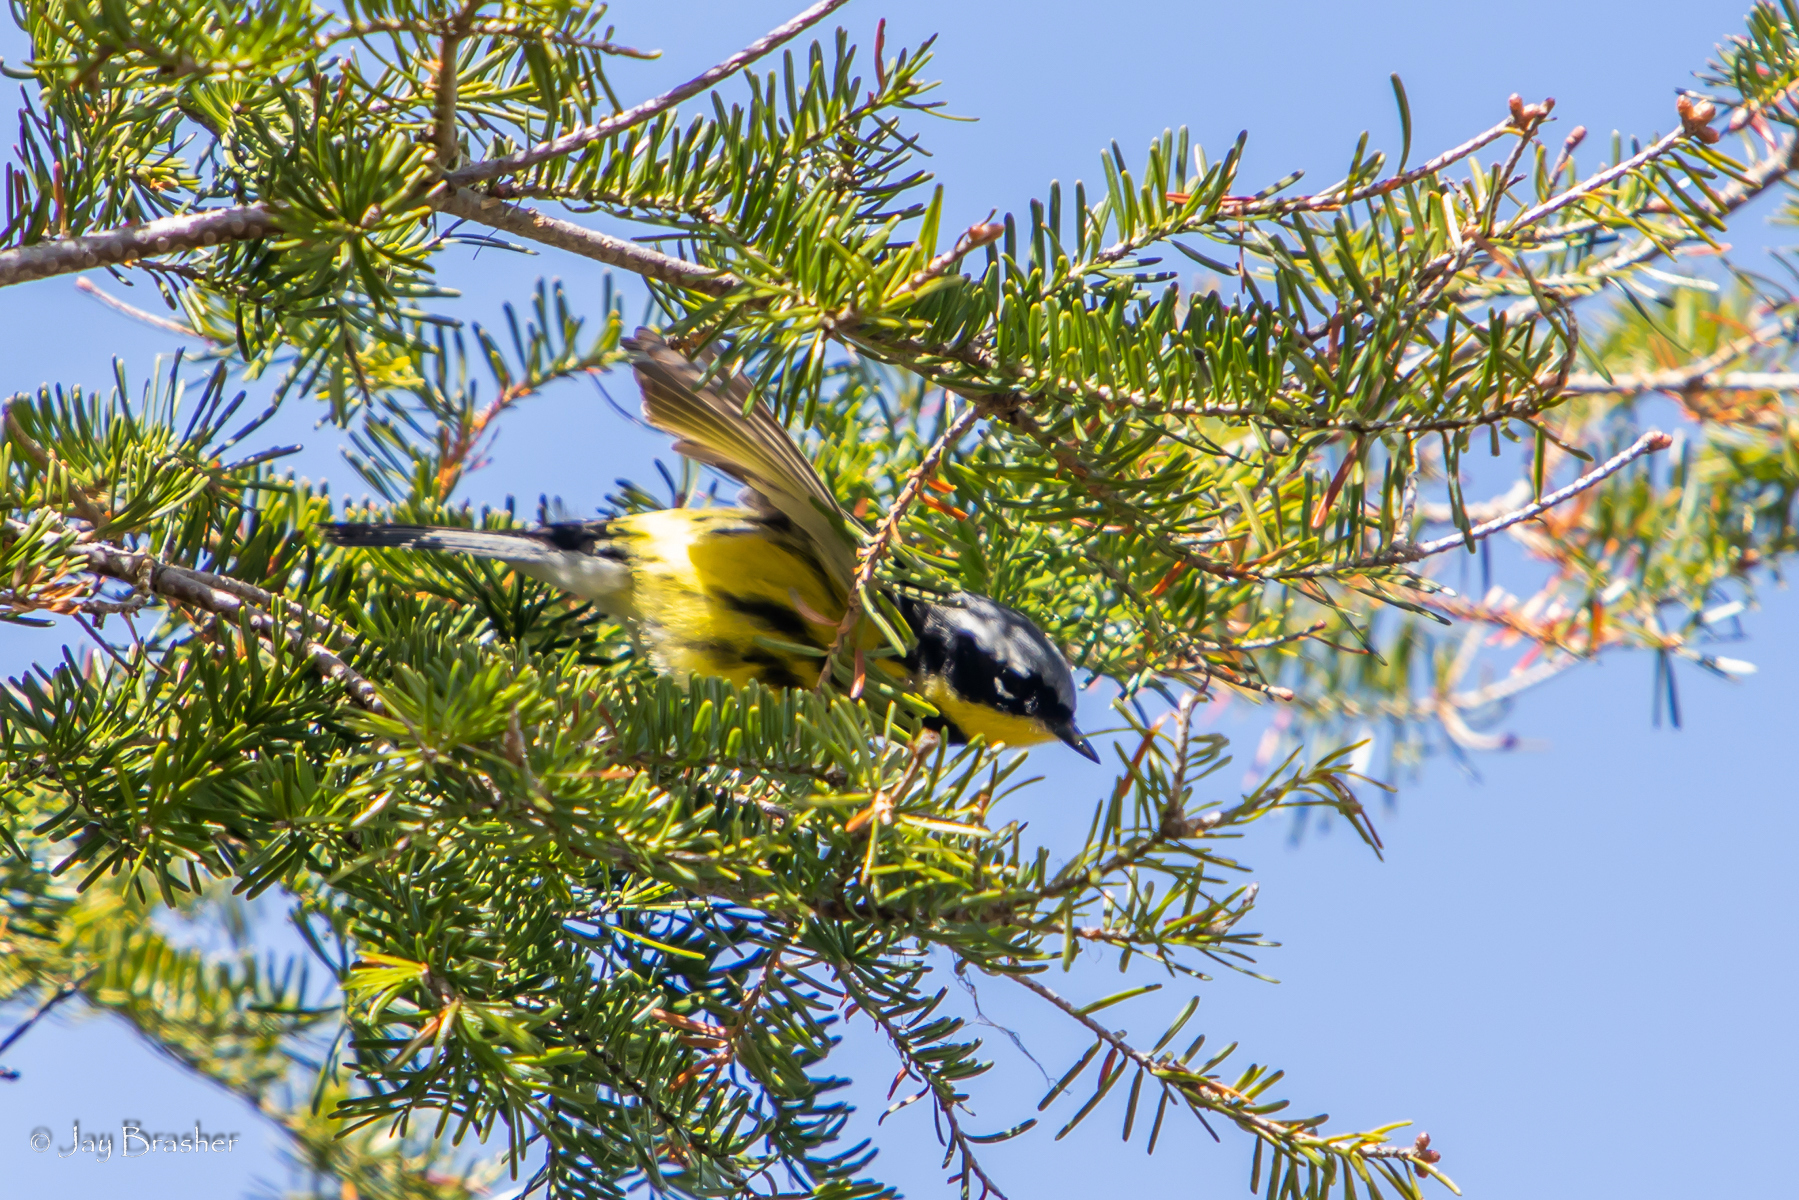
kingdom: Animalia
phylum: Chordata
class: Aves
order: Passeriformes
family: Parulidae
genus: Setophaga
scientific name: Setophaga magnolia
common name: Magnolia warbler
